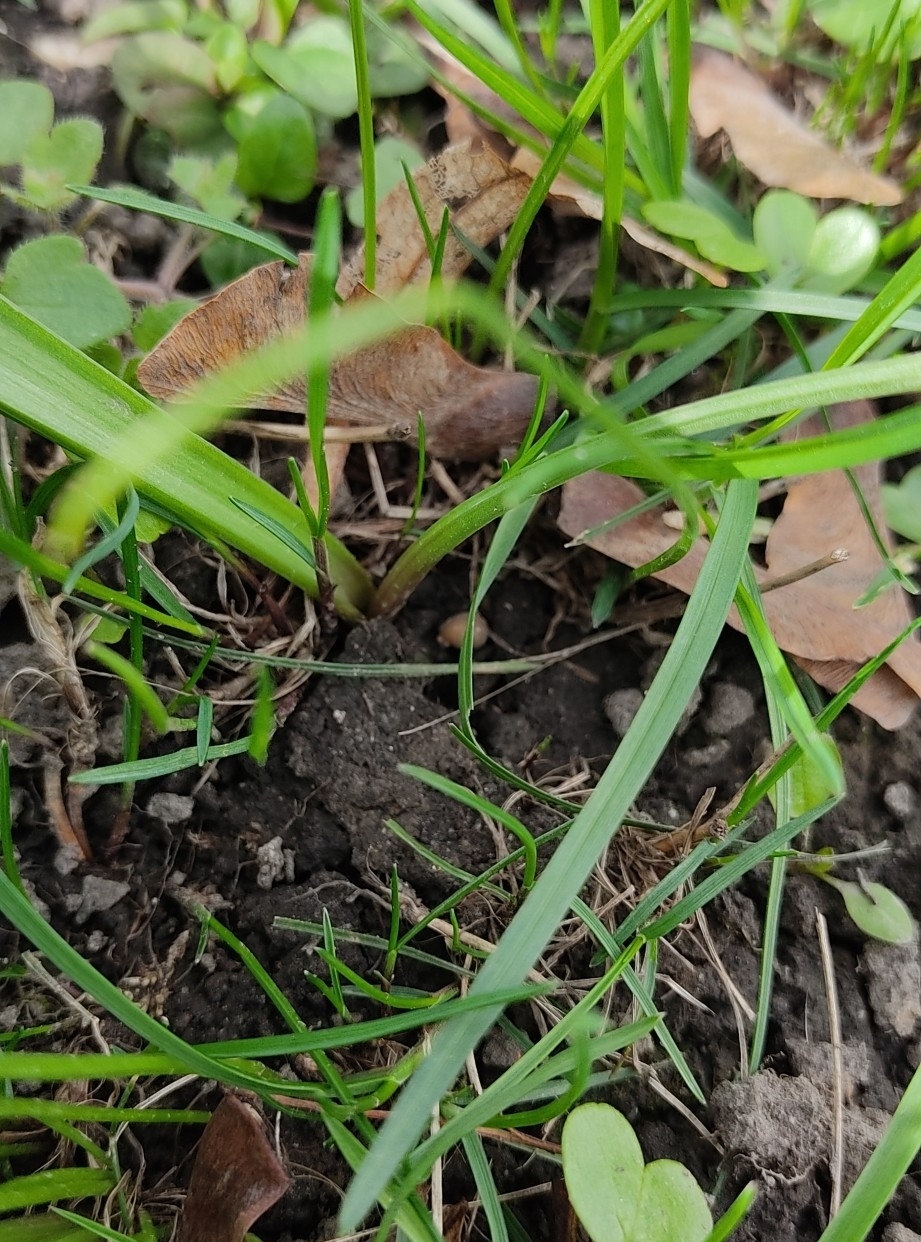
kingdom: Plantae
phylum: Tracheophyta
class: Liliopsida
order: Liliales
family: Liliaceae
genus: Gagea
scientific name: Gagea lutea
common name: Yellow star-of-bethlehem
